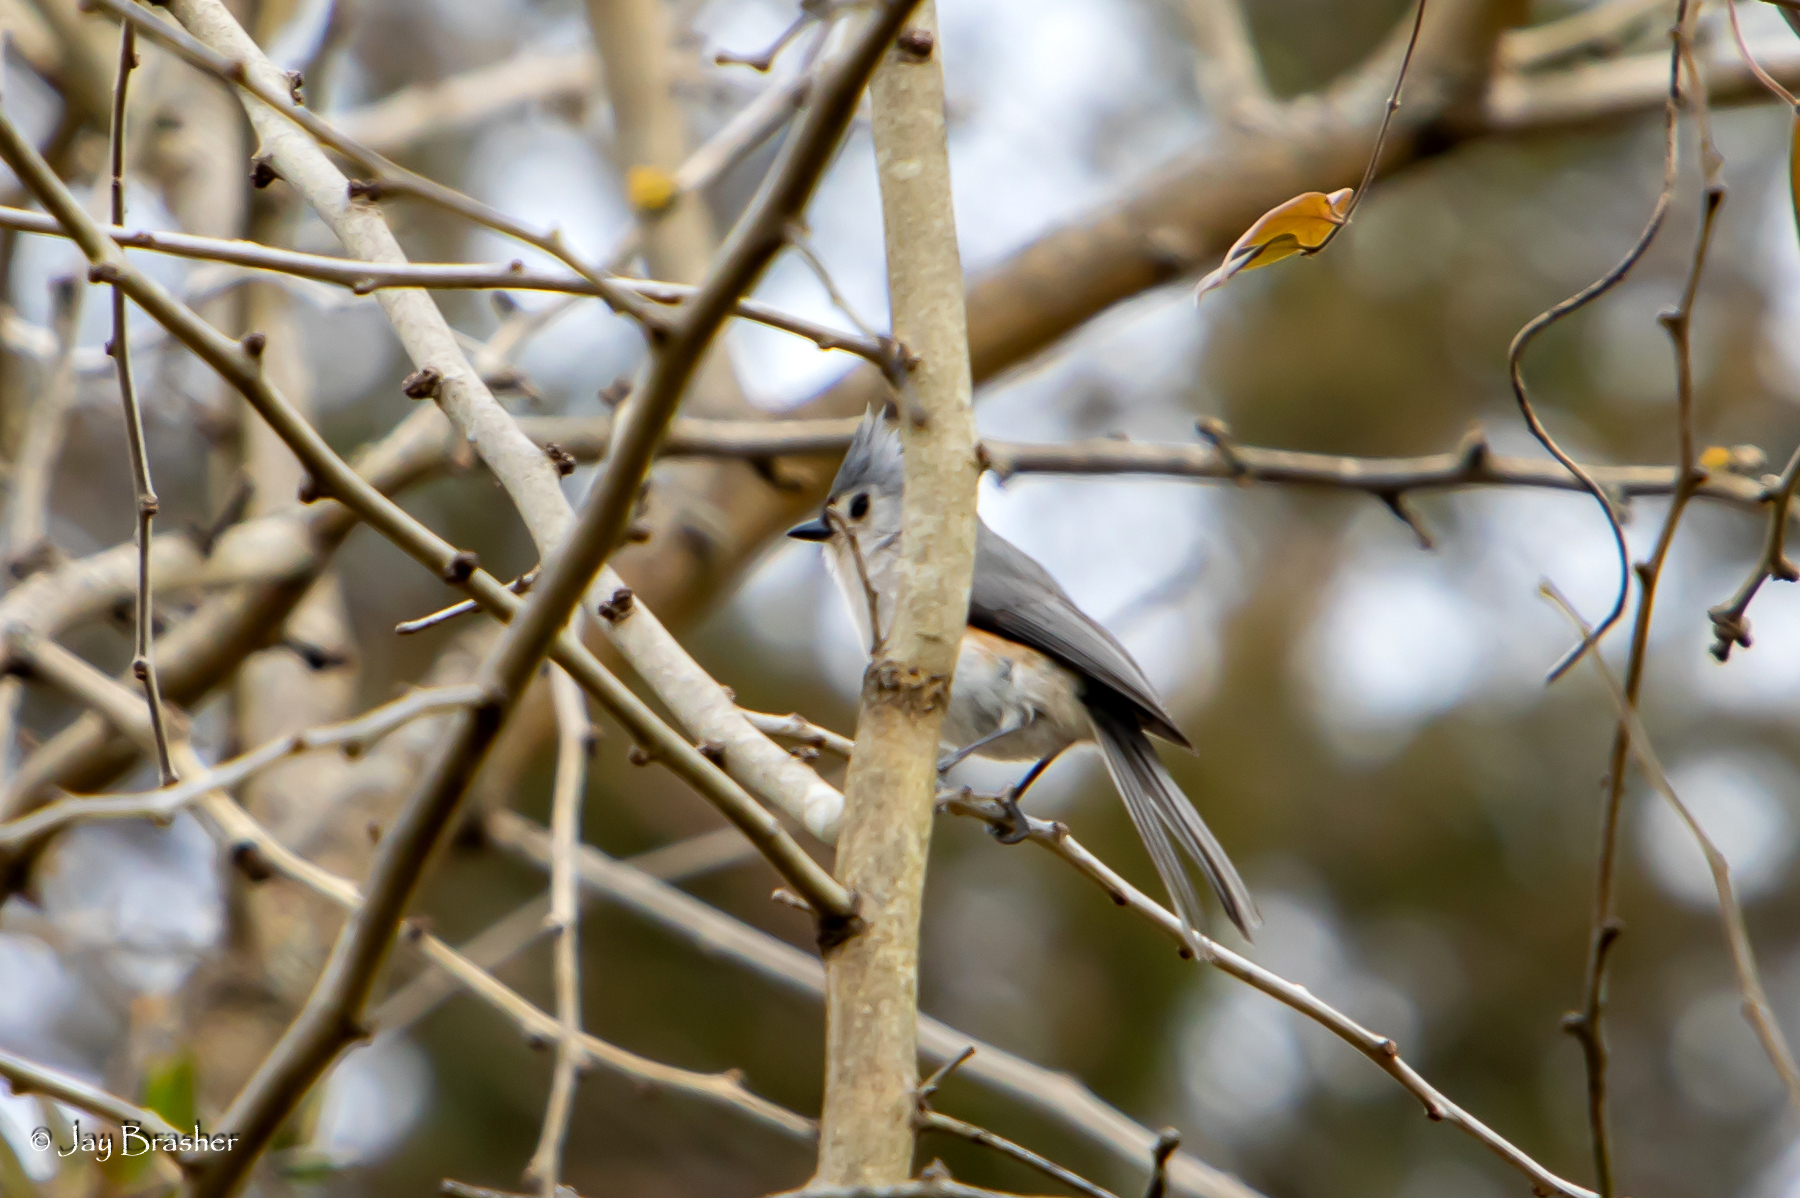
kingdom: Animalia
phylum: Chordata
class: Aves
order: Passeriformes
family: Paridae
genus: Baeolophus
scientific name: Baeolophus bicolor
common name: Tufted titmouse
